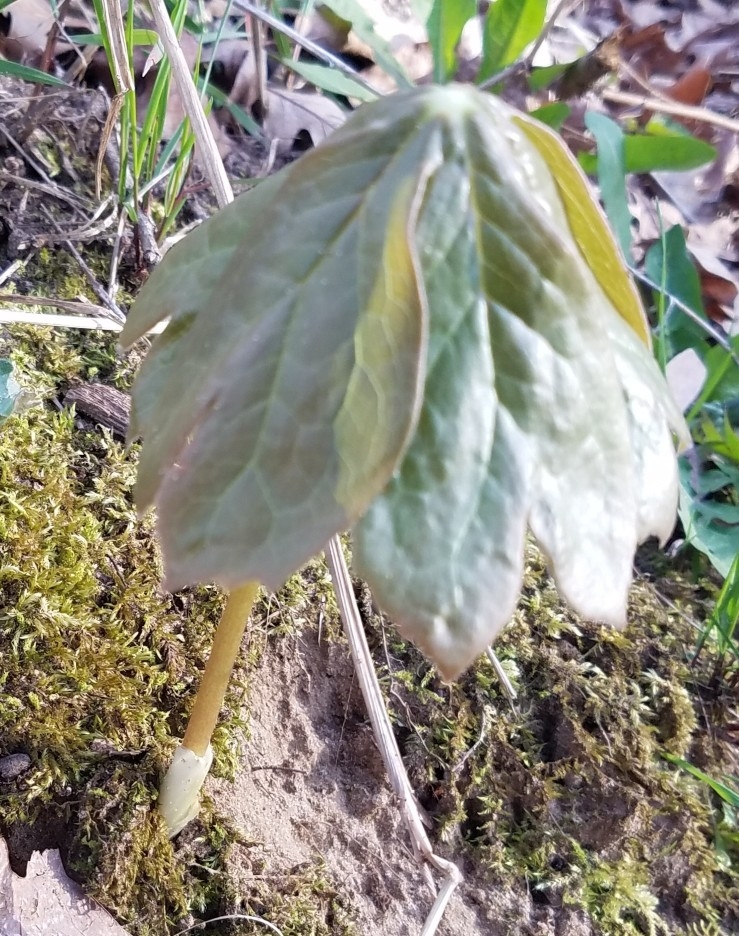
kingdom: Plantae
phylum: Tracheophyta
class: Magnoliopsida
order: Ranunculales
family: Berberidaceae
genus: Podophyllum
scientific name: Podophyllum peltatum
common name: Wild mandrake
